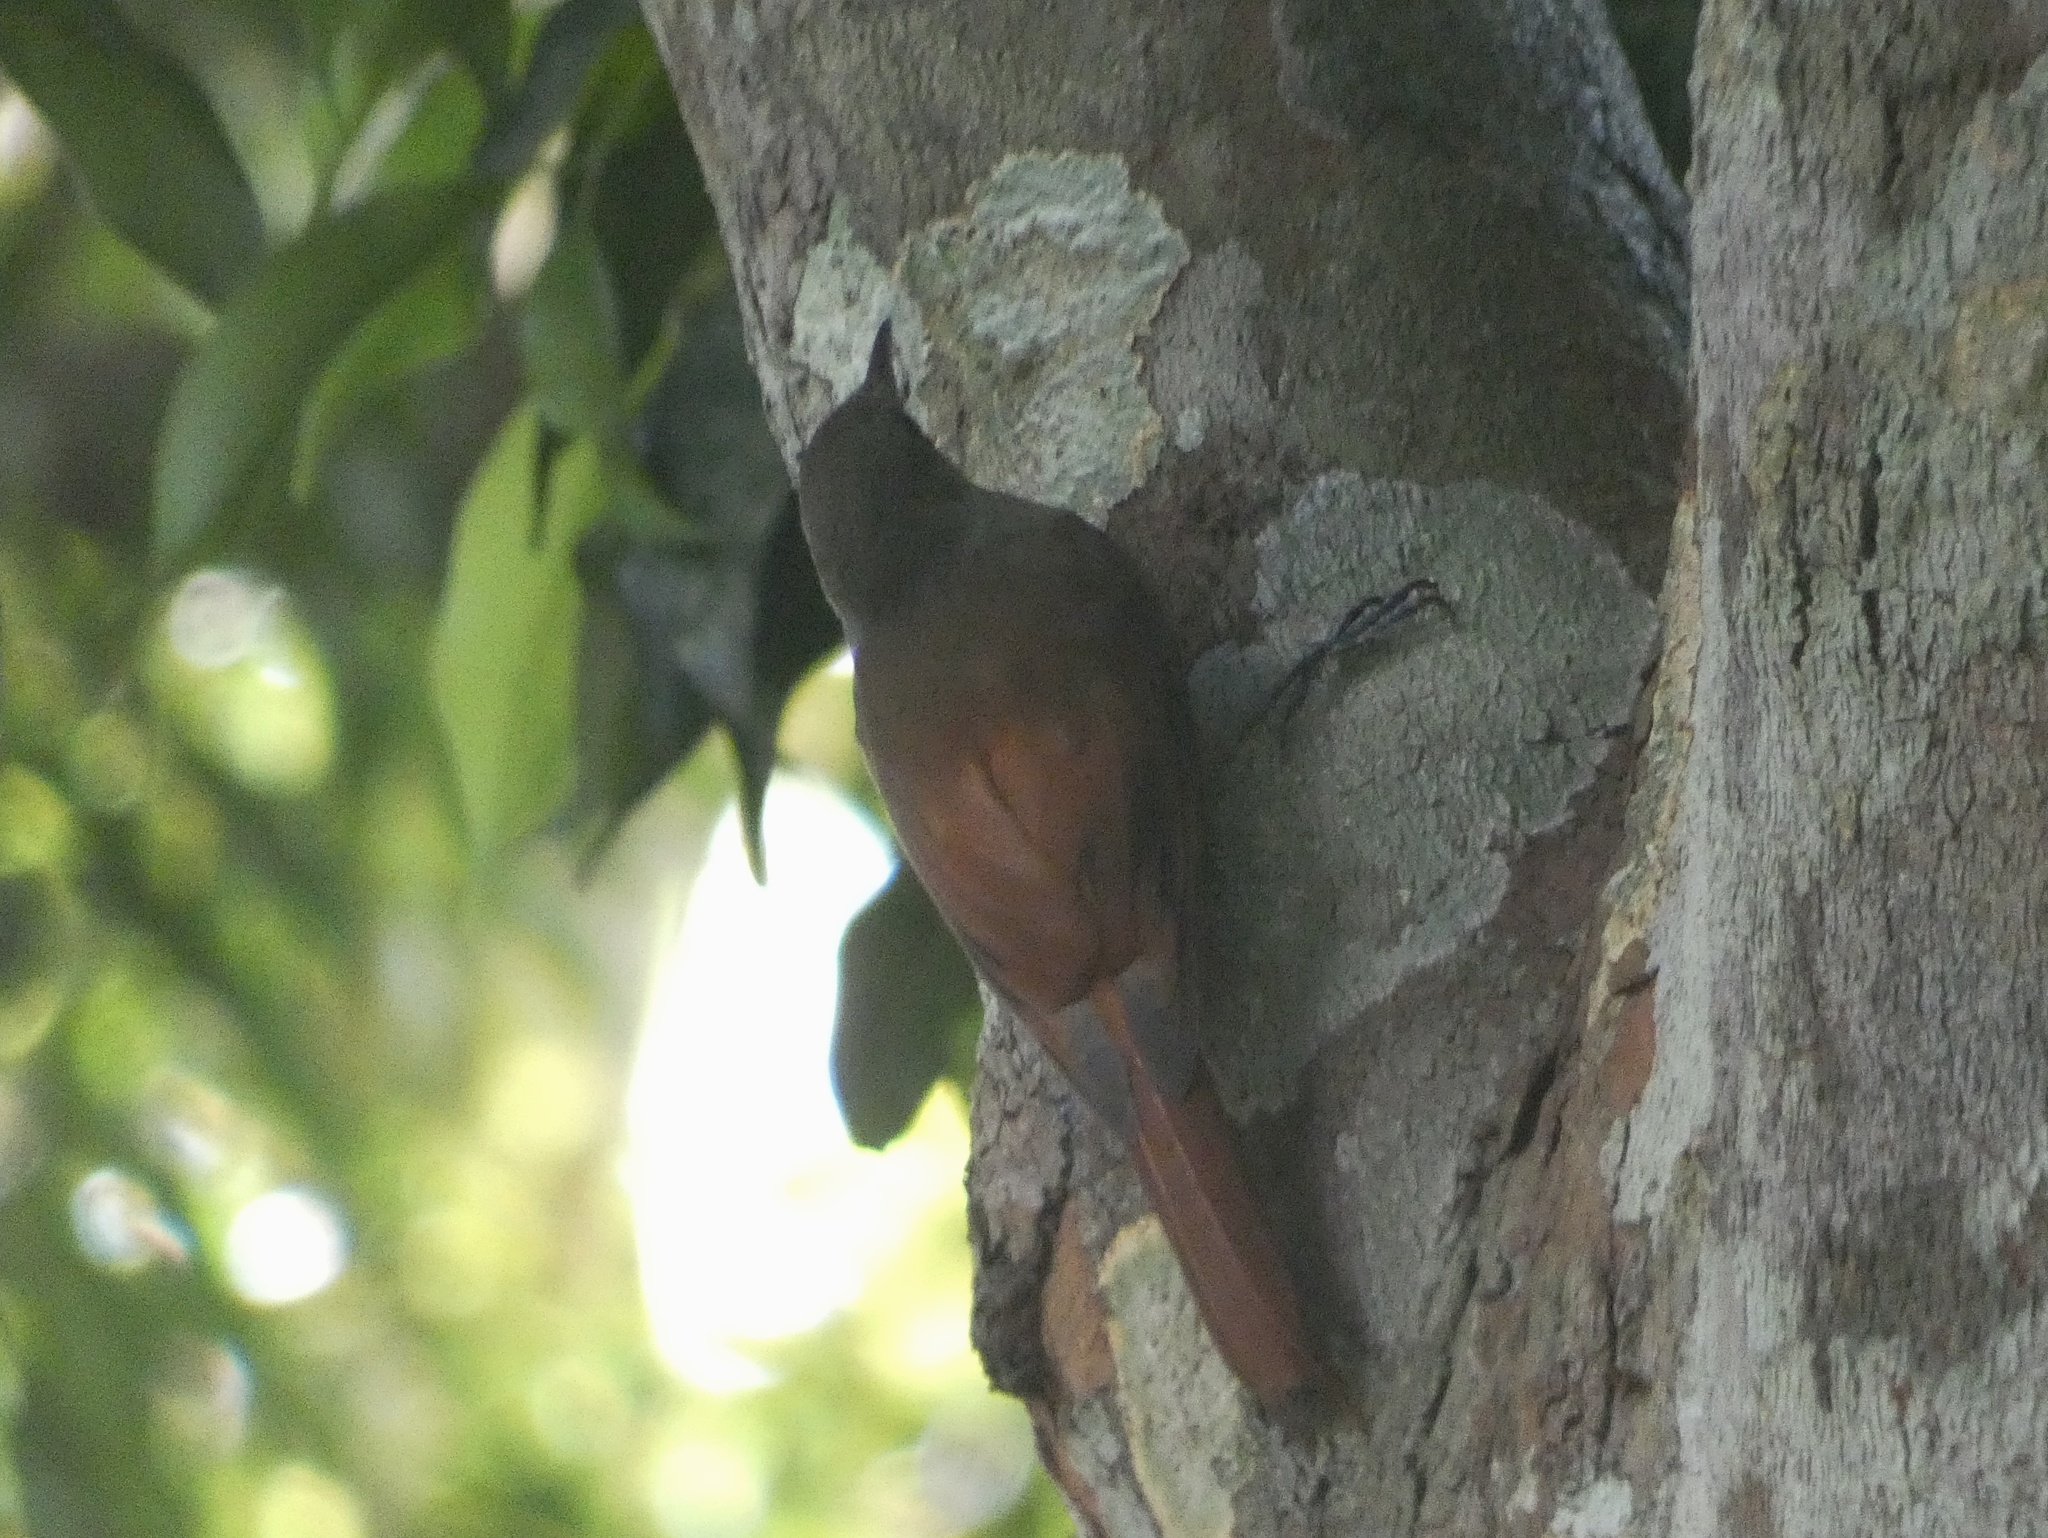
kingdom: Animalia
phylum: Chordata
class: Aves
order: Passeriformes
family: Furnariidae
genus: Sittasomus
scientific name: Sittasomus griseicapillus
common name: Olivaceous woodcreeper
